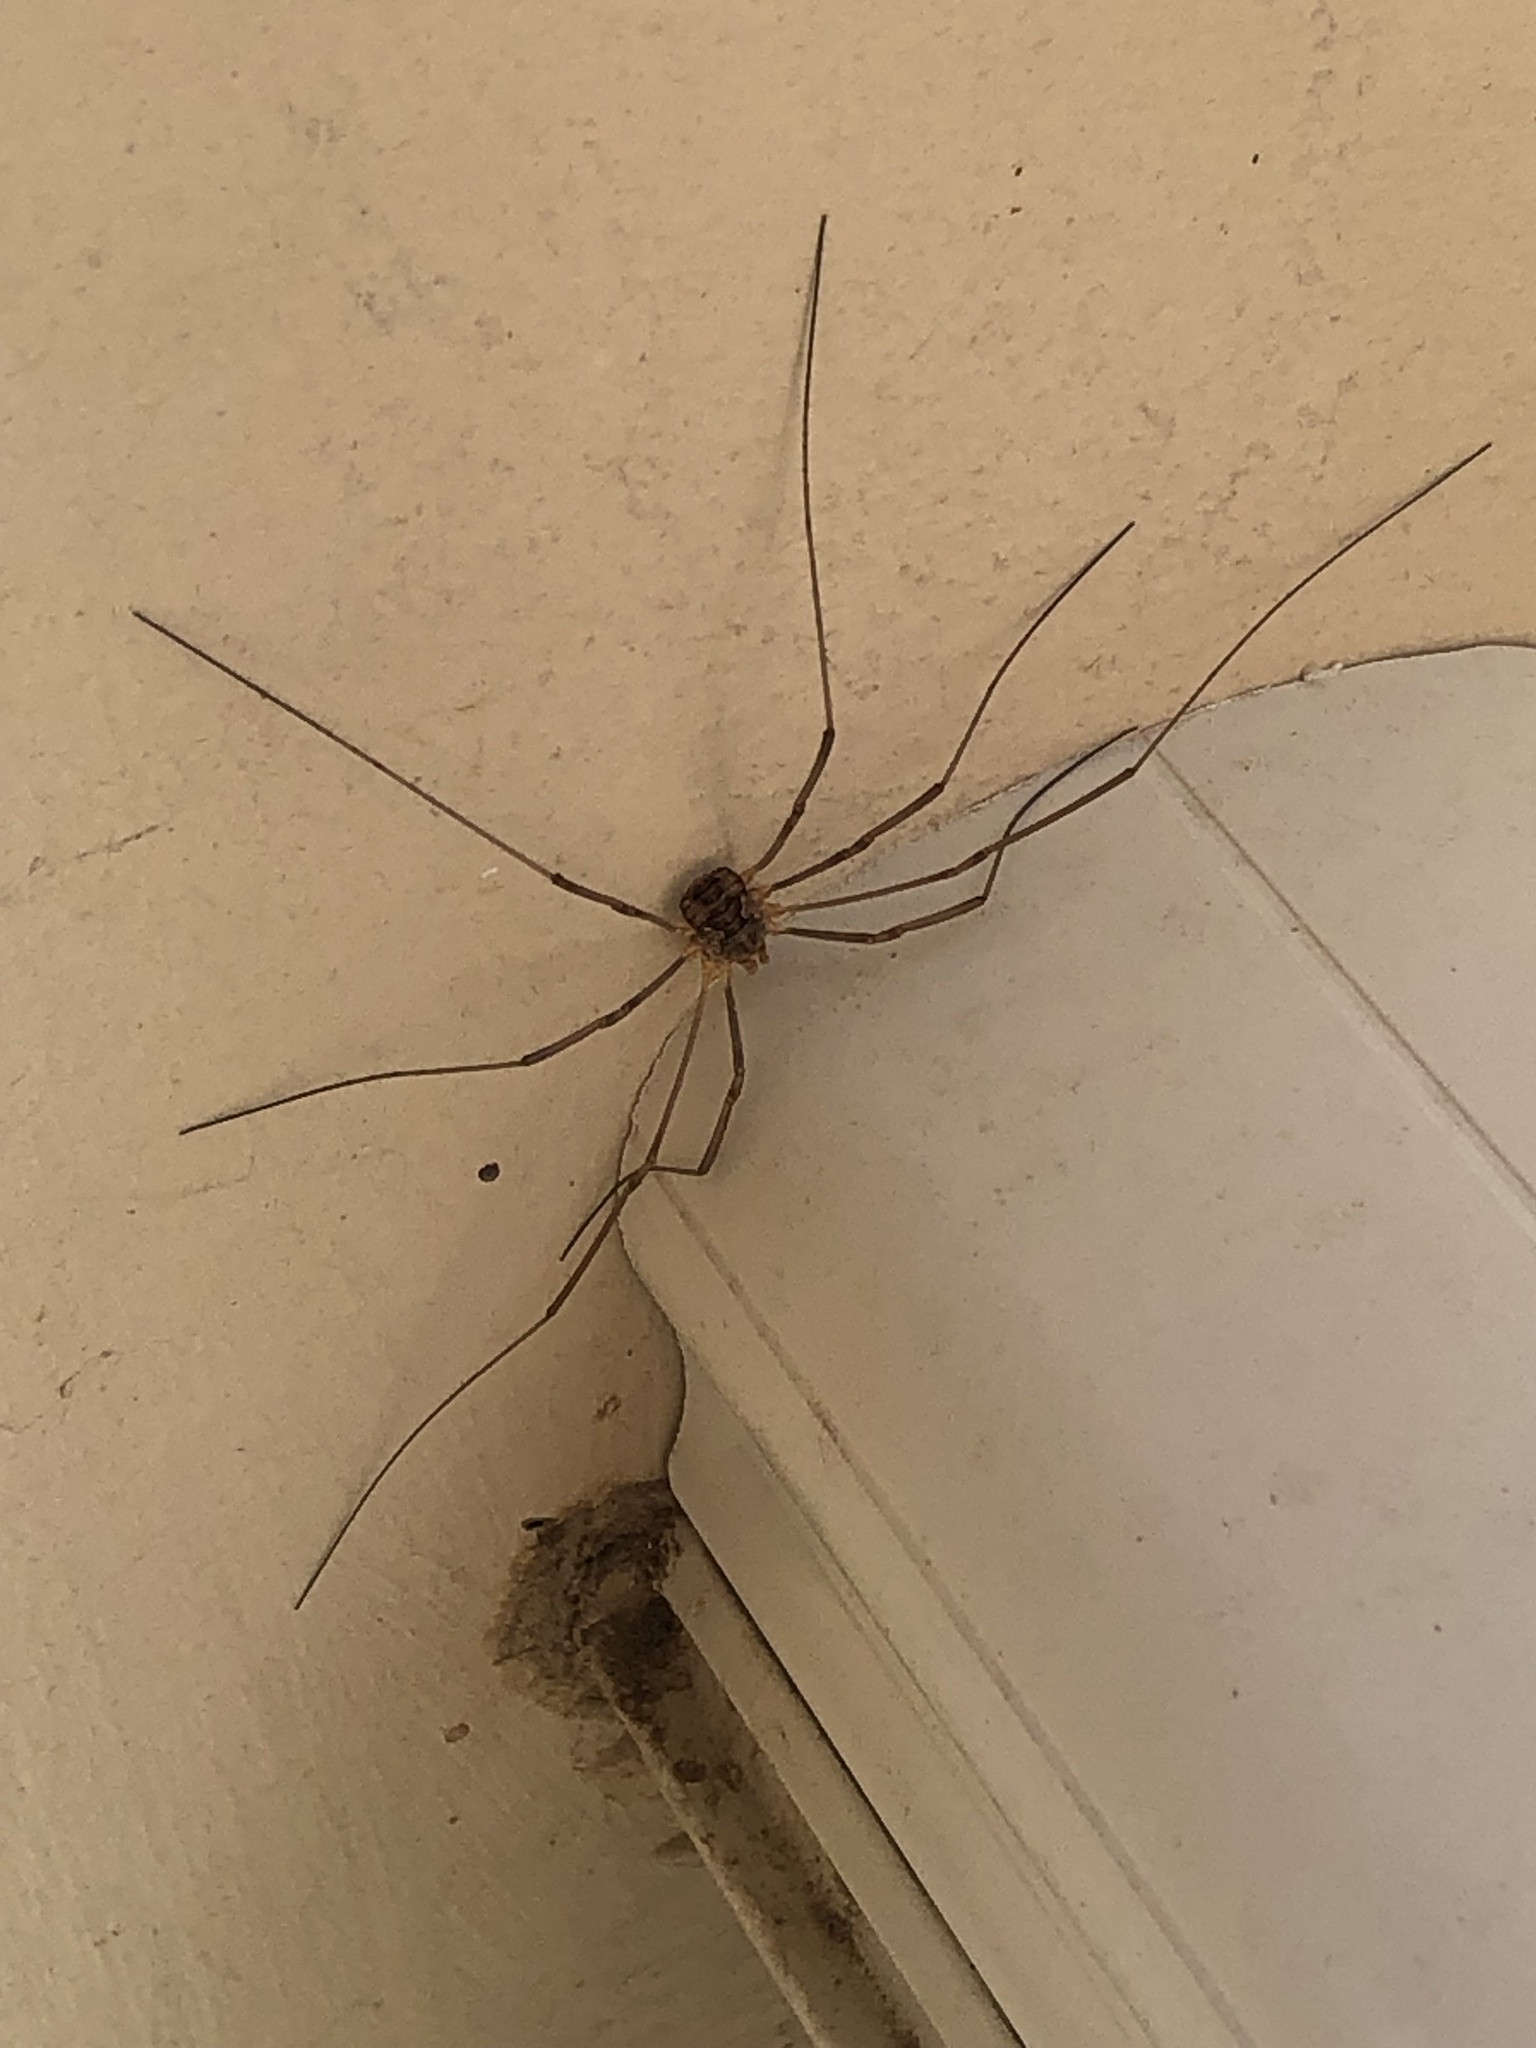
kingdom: Animalia
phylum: Arthropoda
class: Arachnida
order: Opiliones
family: Phalangiidae
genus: Phalangium
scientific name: Phalangium opilio
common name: Daddy longleg
